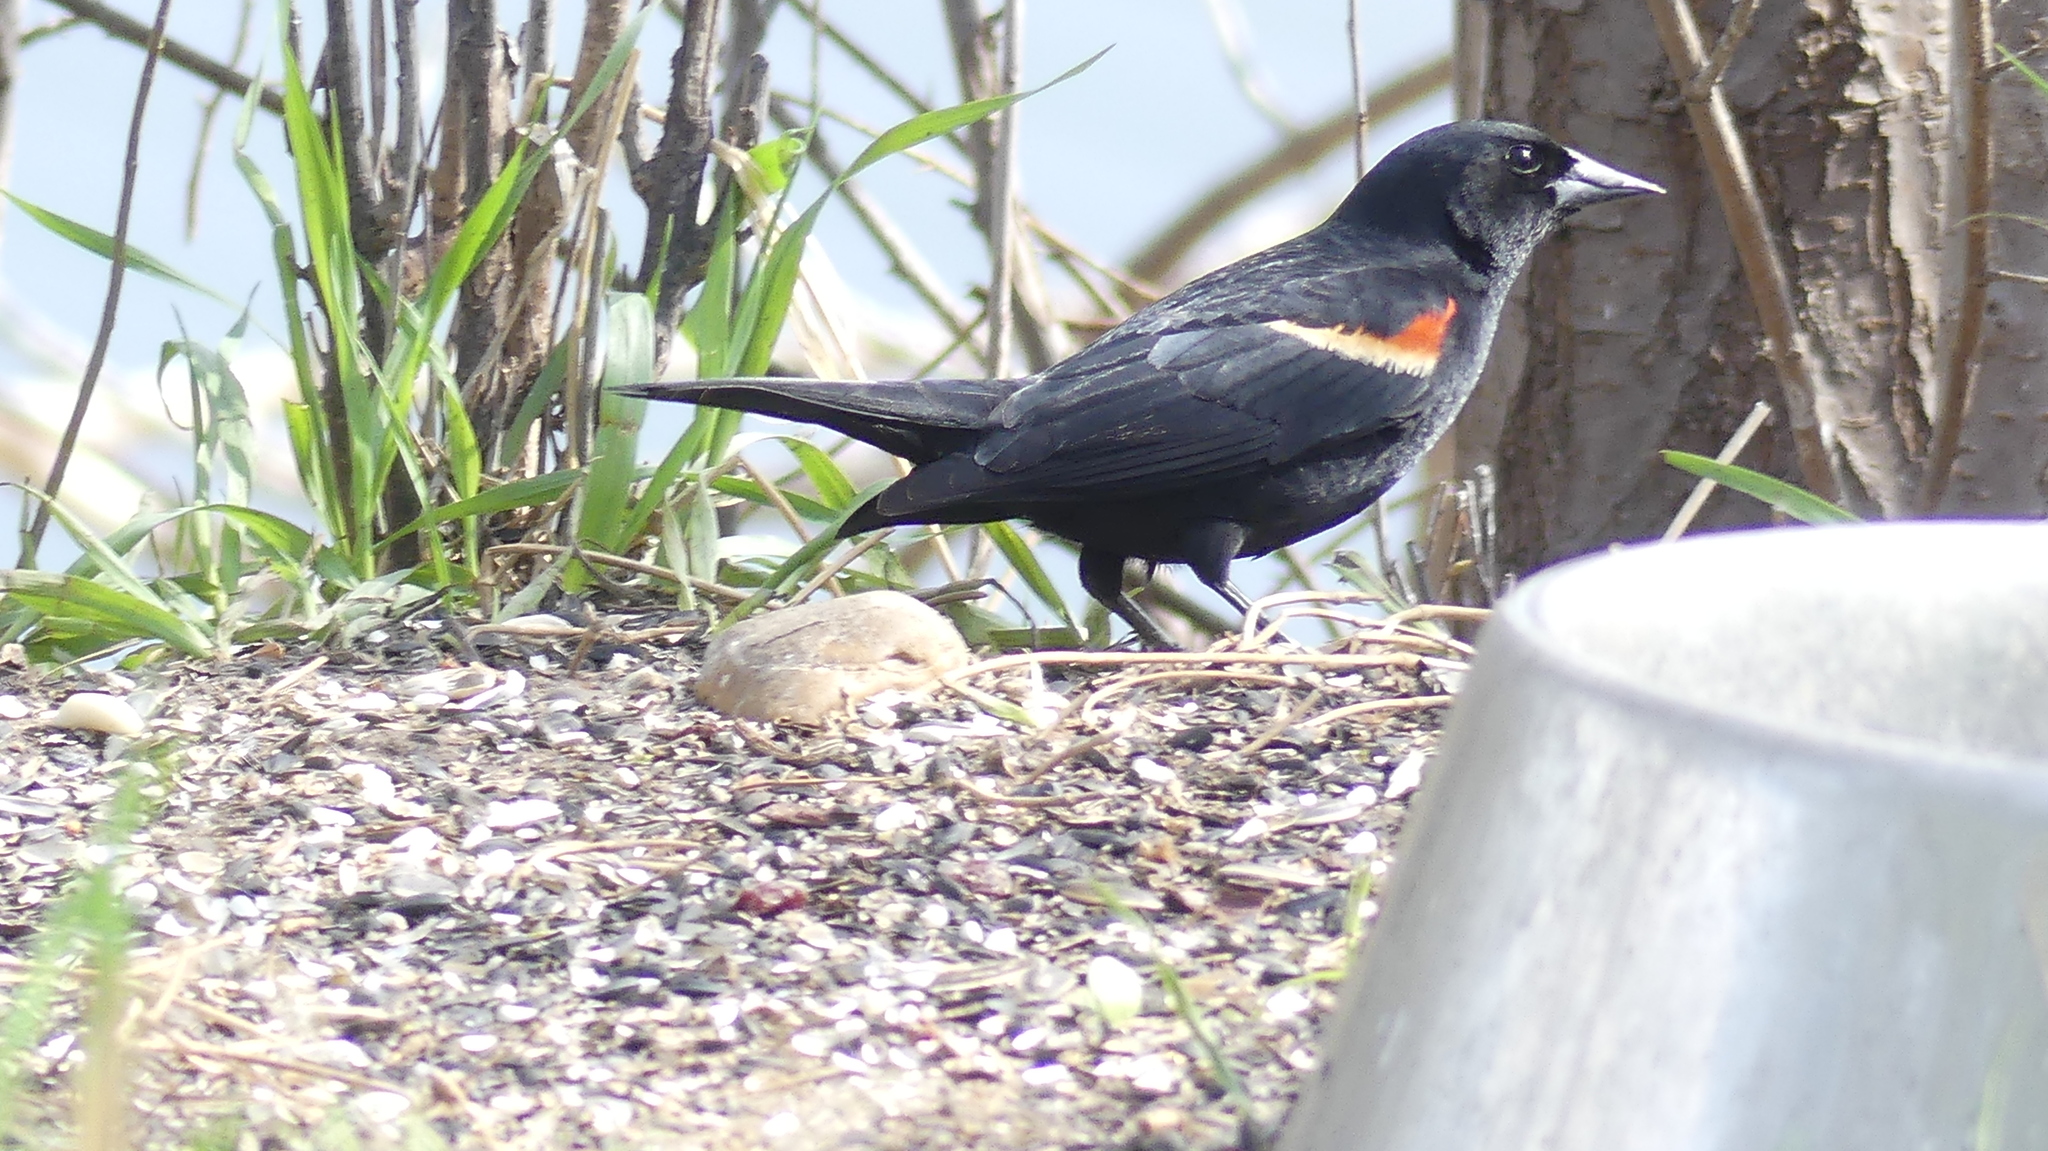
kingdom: Animalia
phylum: Chordata
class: Aves
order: Passeriformes
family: Icteridae
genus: Agelaius
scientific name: Agelaius phoeniceus
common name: Red-winged blackbird
